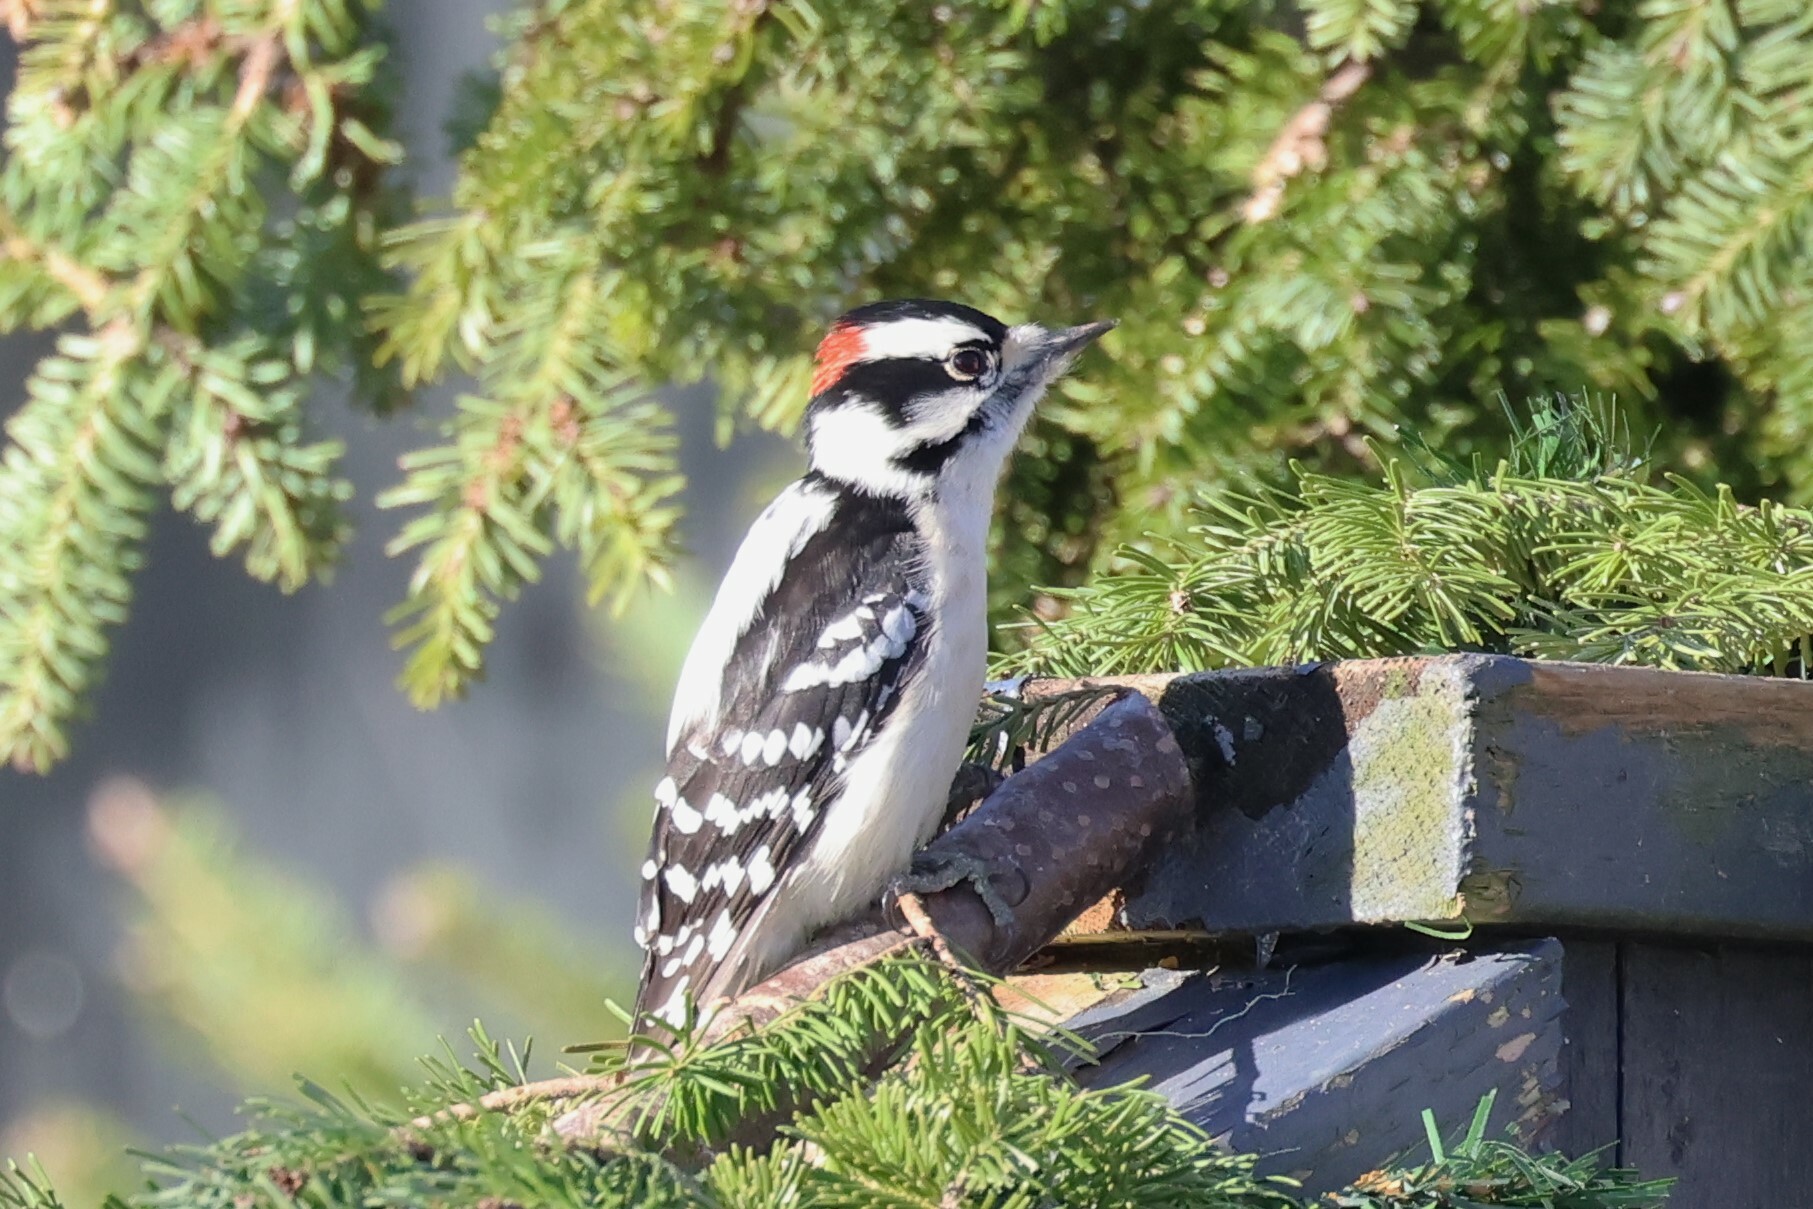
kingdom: Animalia
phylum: Chordata
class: Aves
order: Piciformes
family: Picidae
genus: Dryobates
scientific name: Dryobates pubescens
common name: Downy woodpecker
